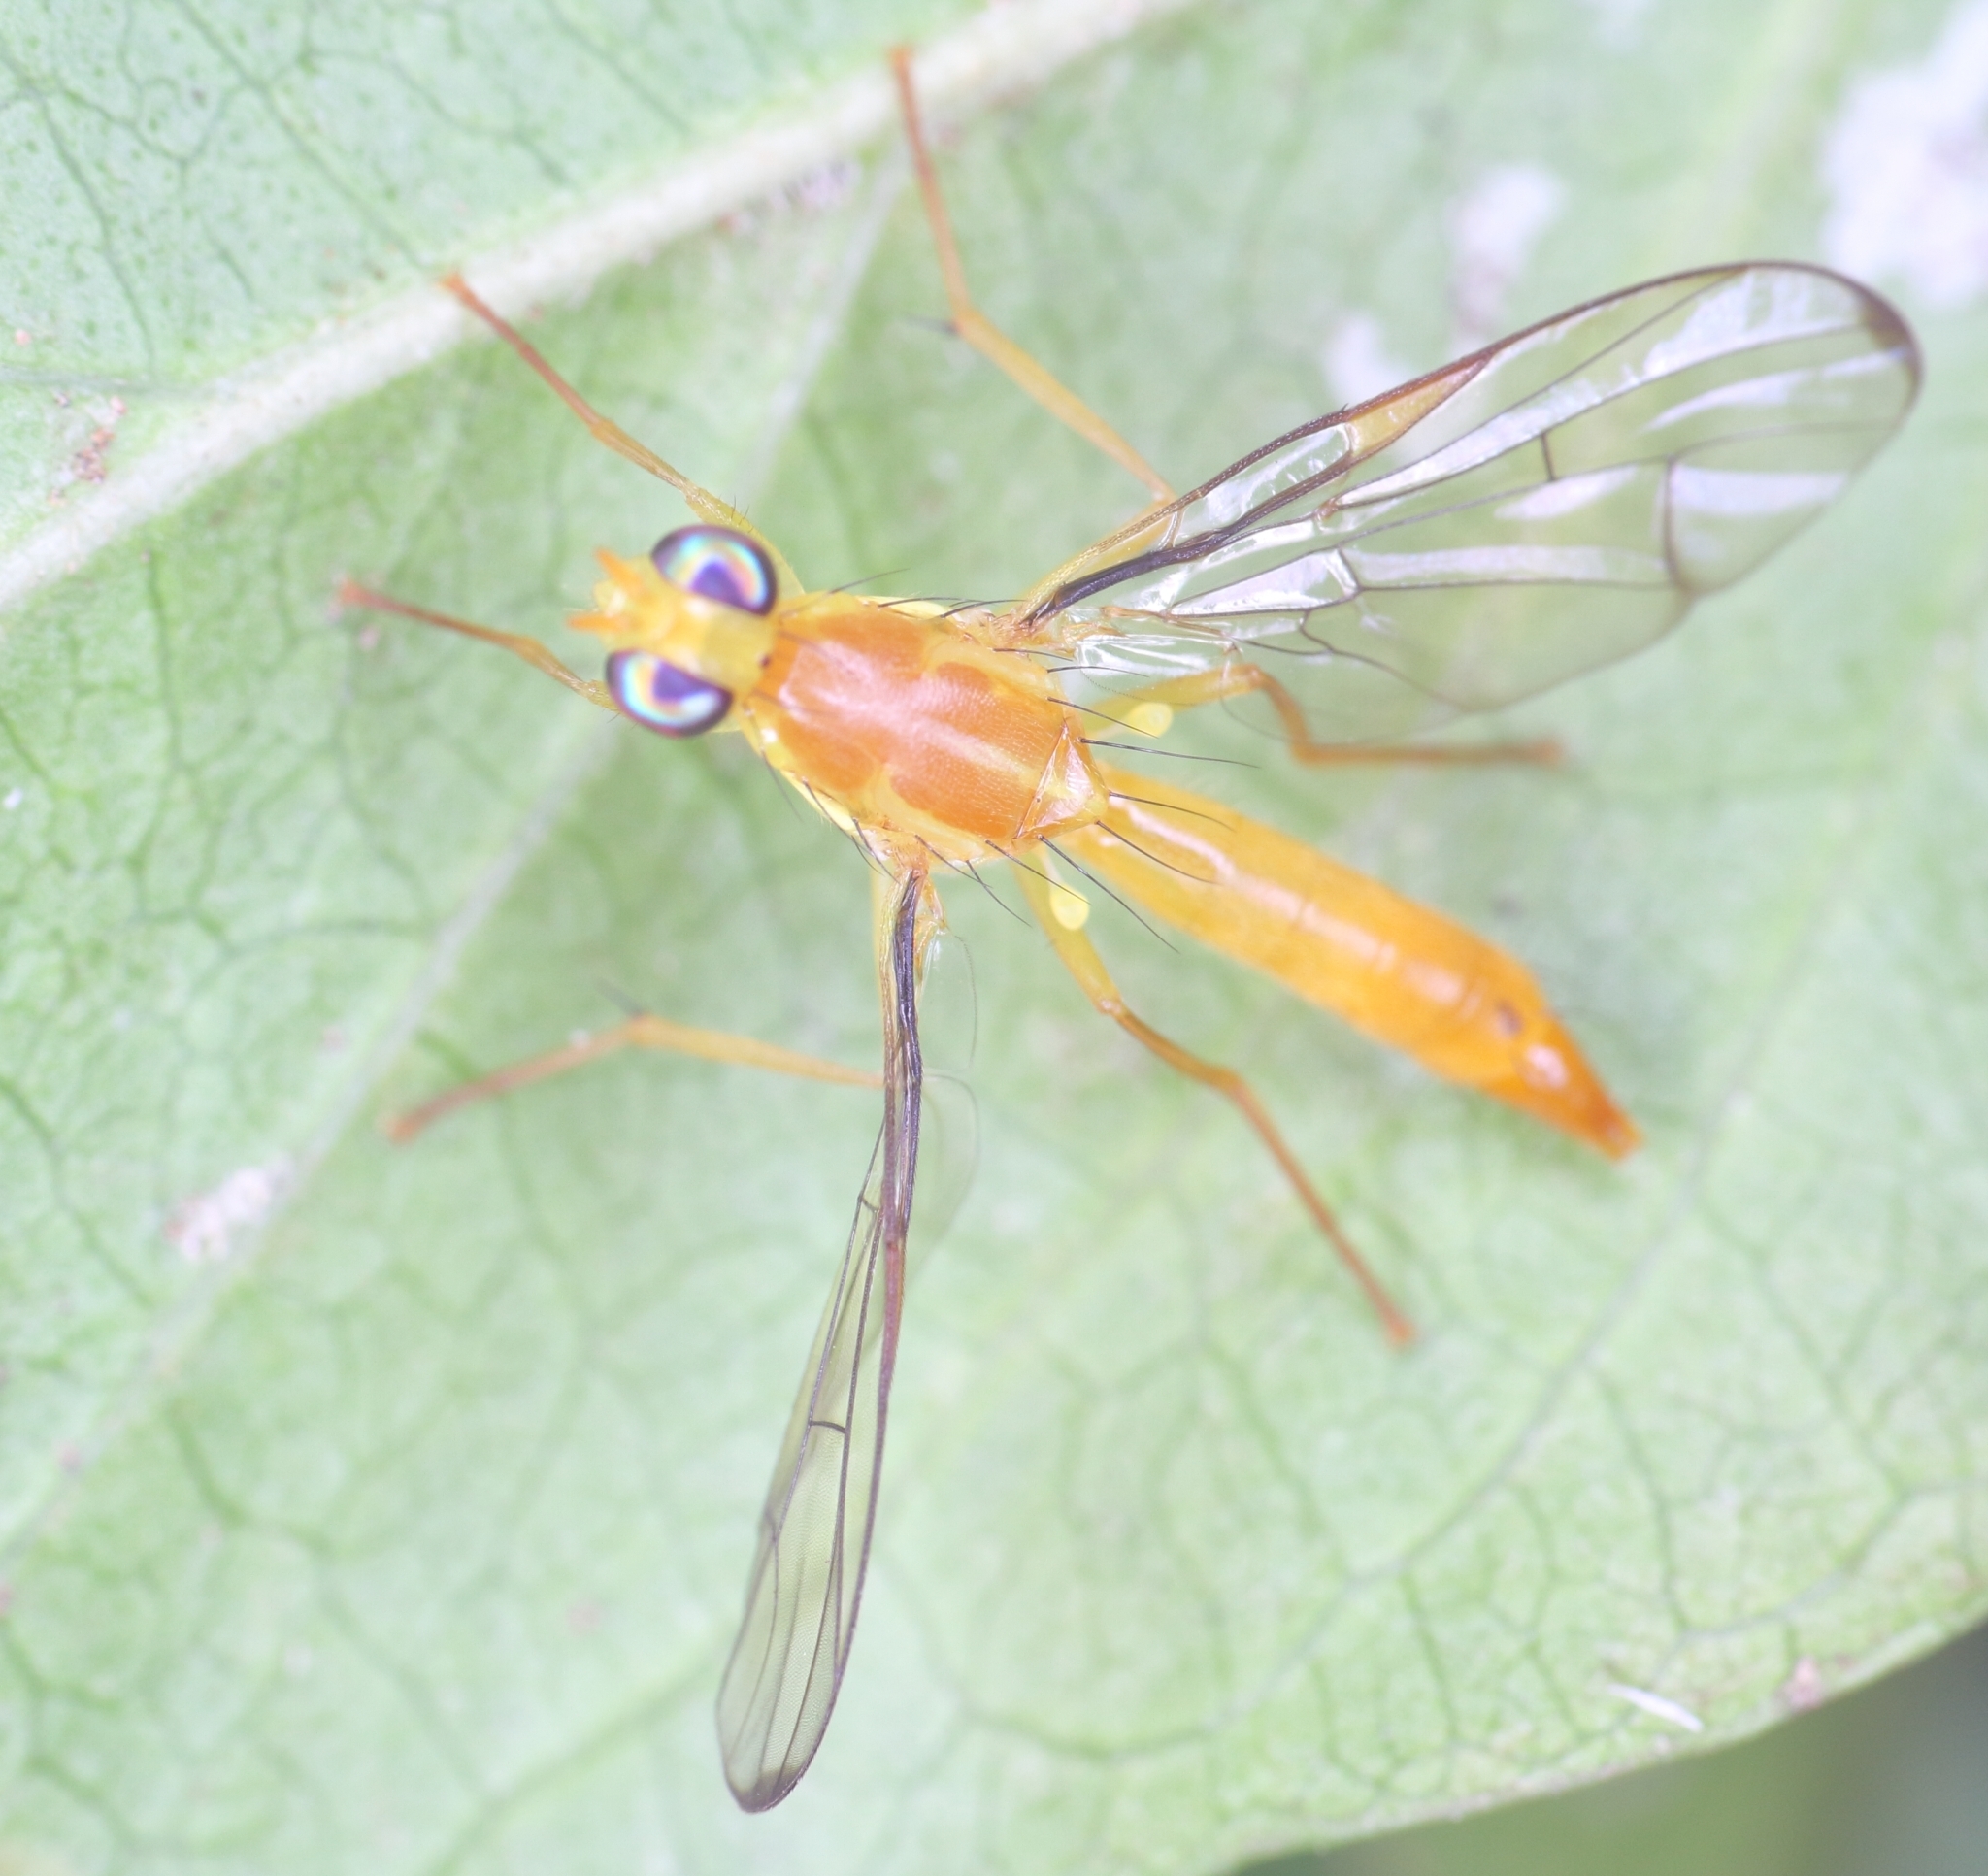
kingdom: Animalia
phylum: Arthropoda
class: Insecta
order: Diptera
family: Tephritidae
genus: Coelopacidia
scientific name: Coelopacidia strigata
